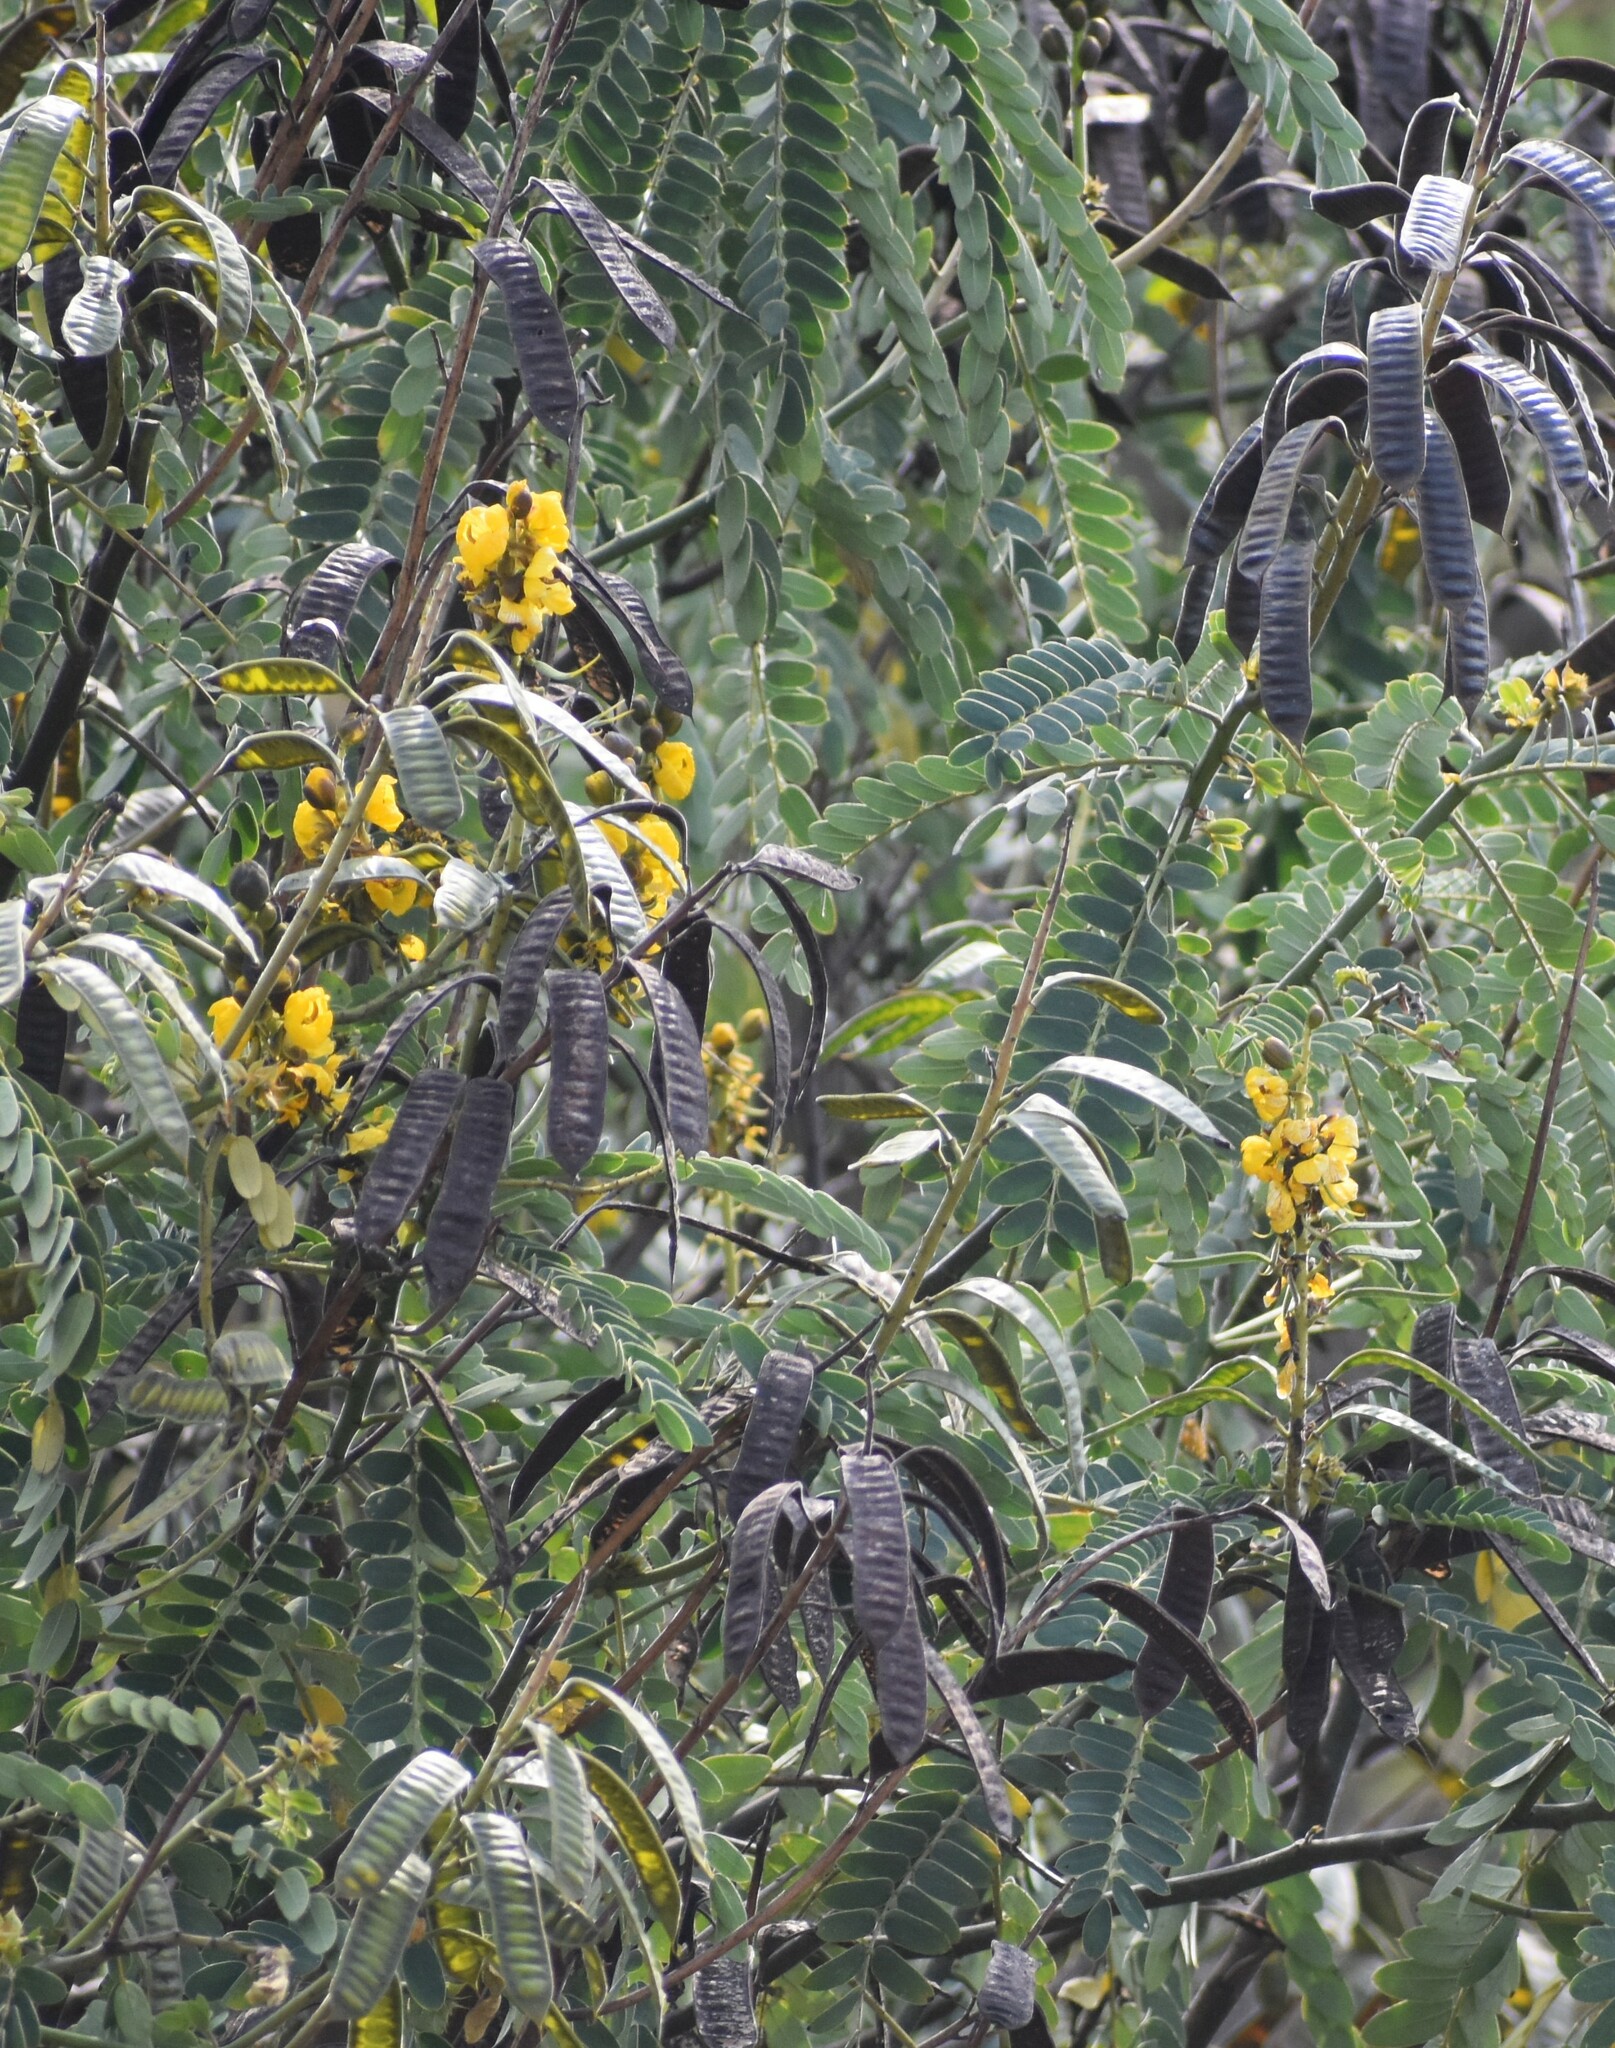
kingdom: Plantae
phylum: Tracheophyta
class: Magnoliopsida
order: Fabales
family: Fabaceae
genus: Senna
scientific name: Senna didymobotrya
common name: African senna
